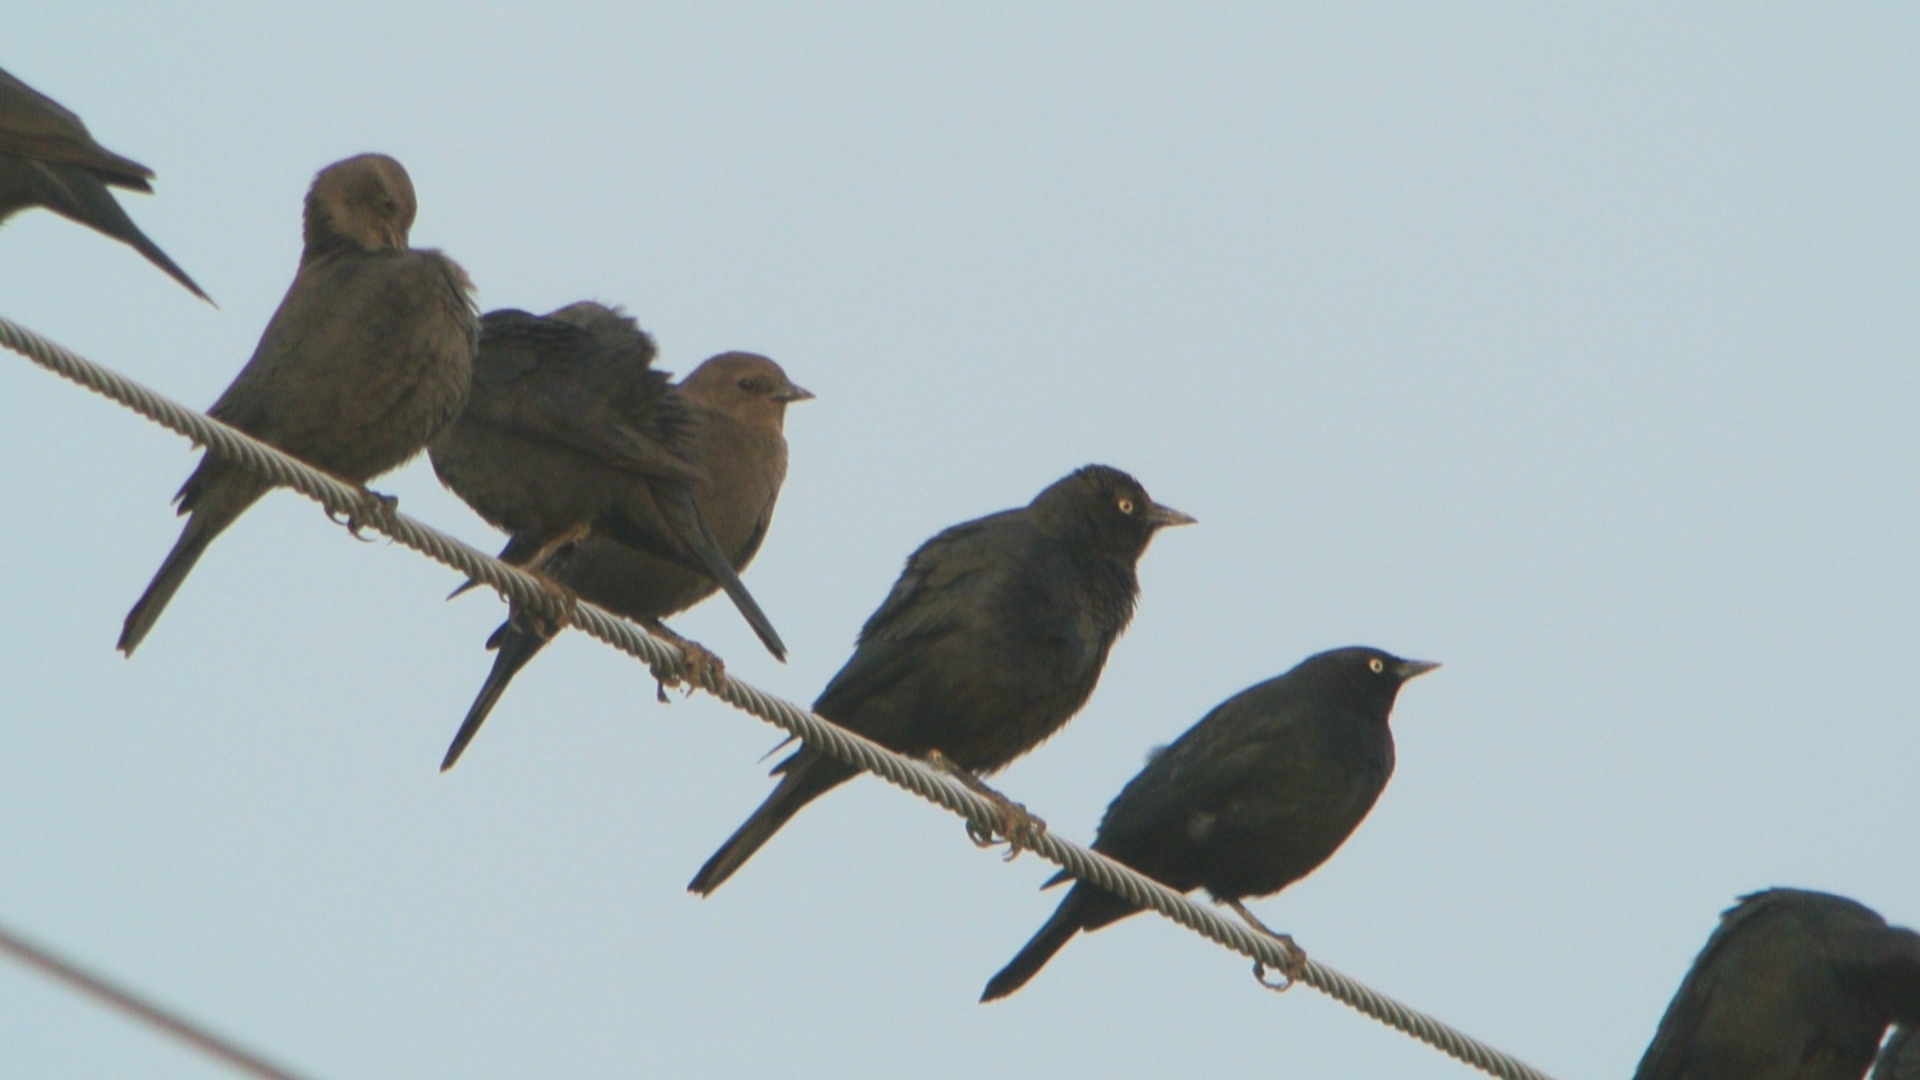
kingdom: Animalia
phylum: Chordata
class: Aves
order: Passeriformes
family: Icteridae
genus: Euphagus
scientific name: Euphagus cyanocephalus
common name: Brewer's blackbird
